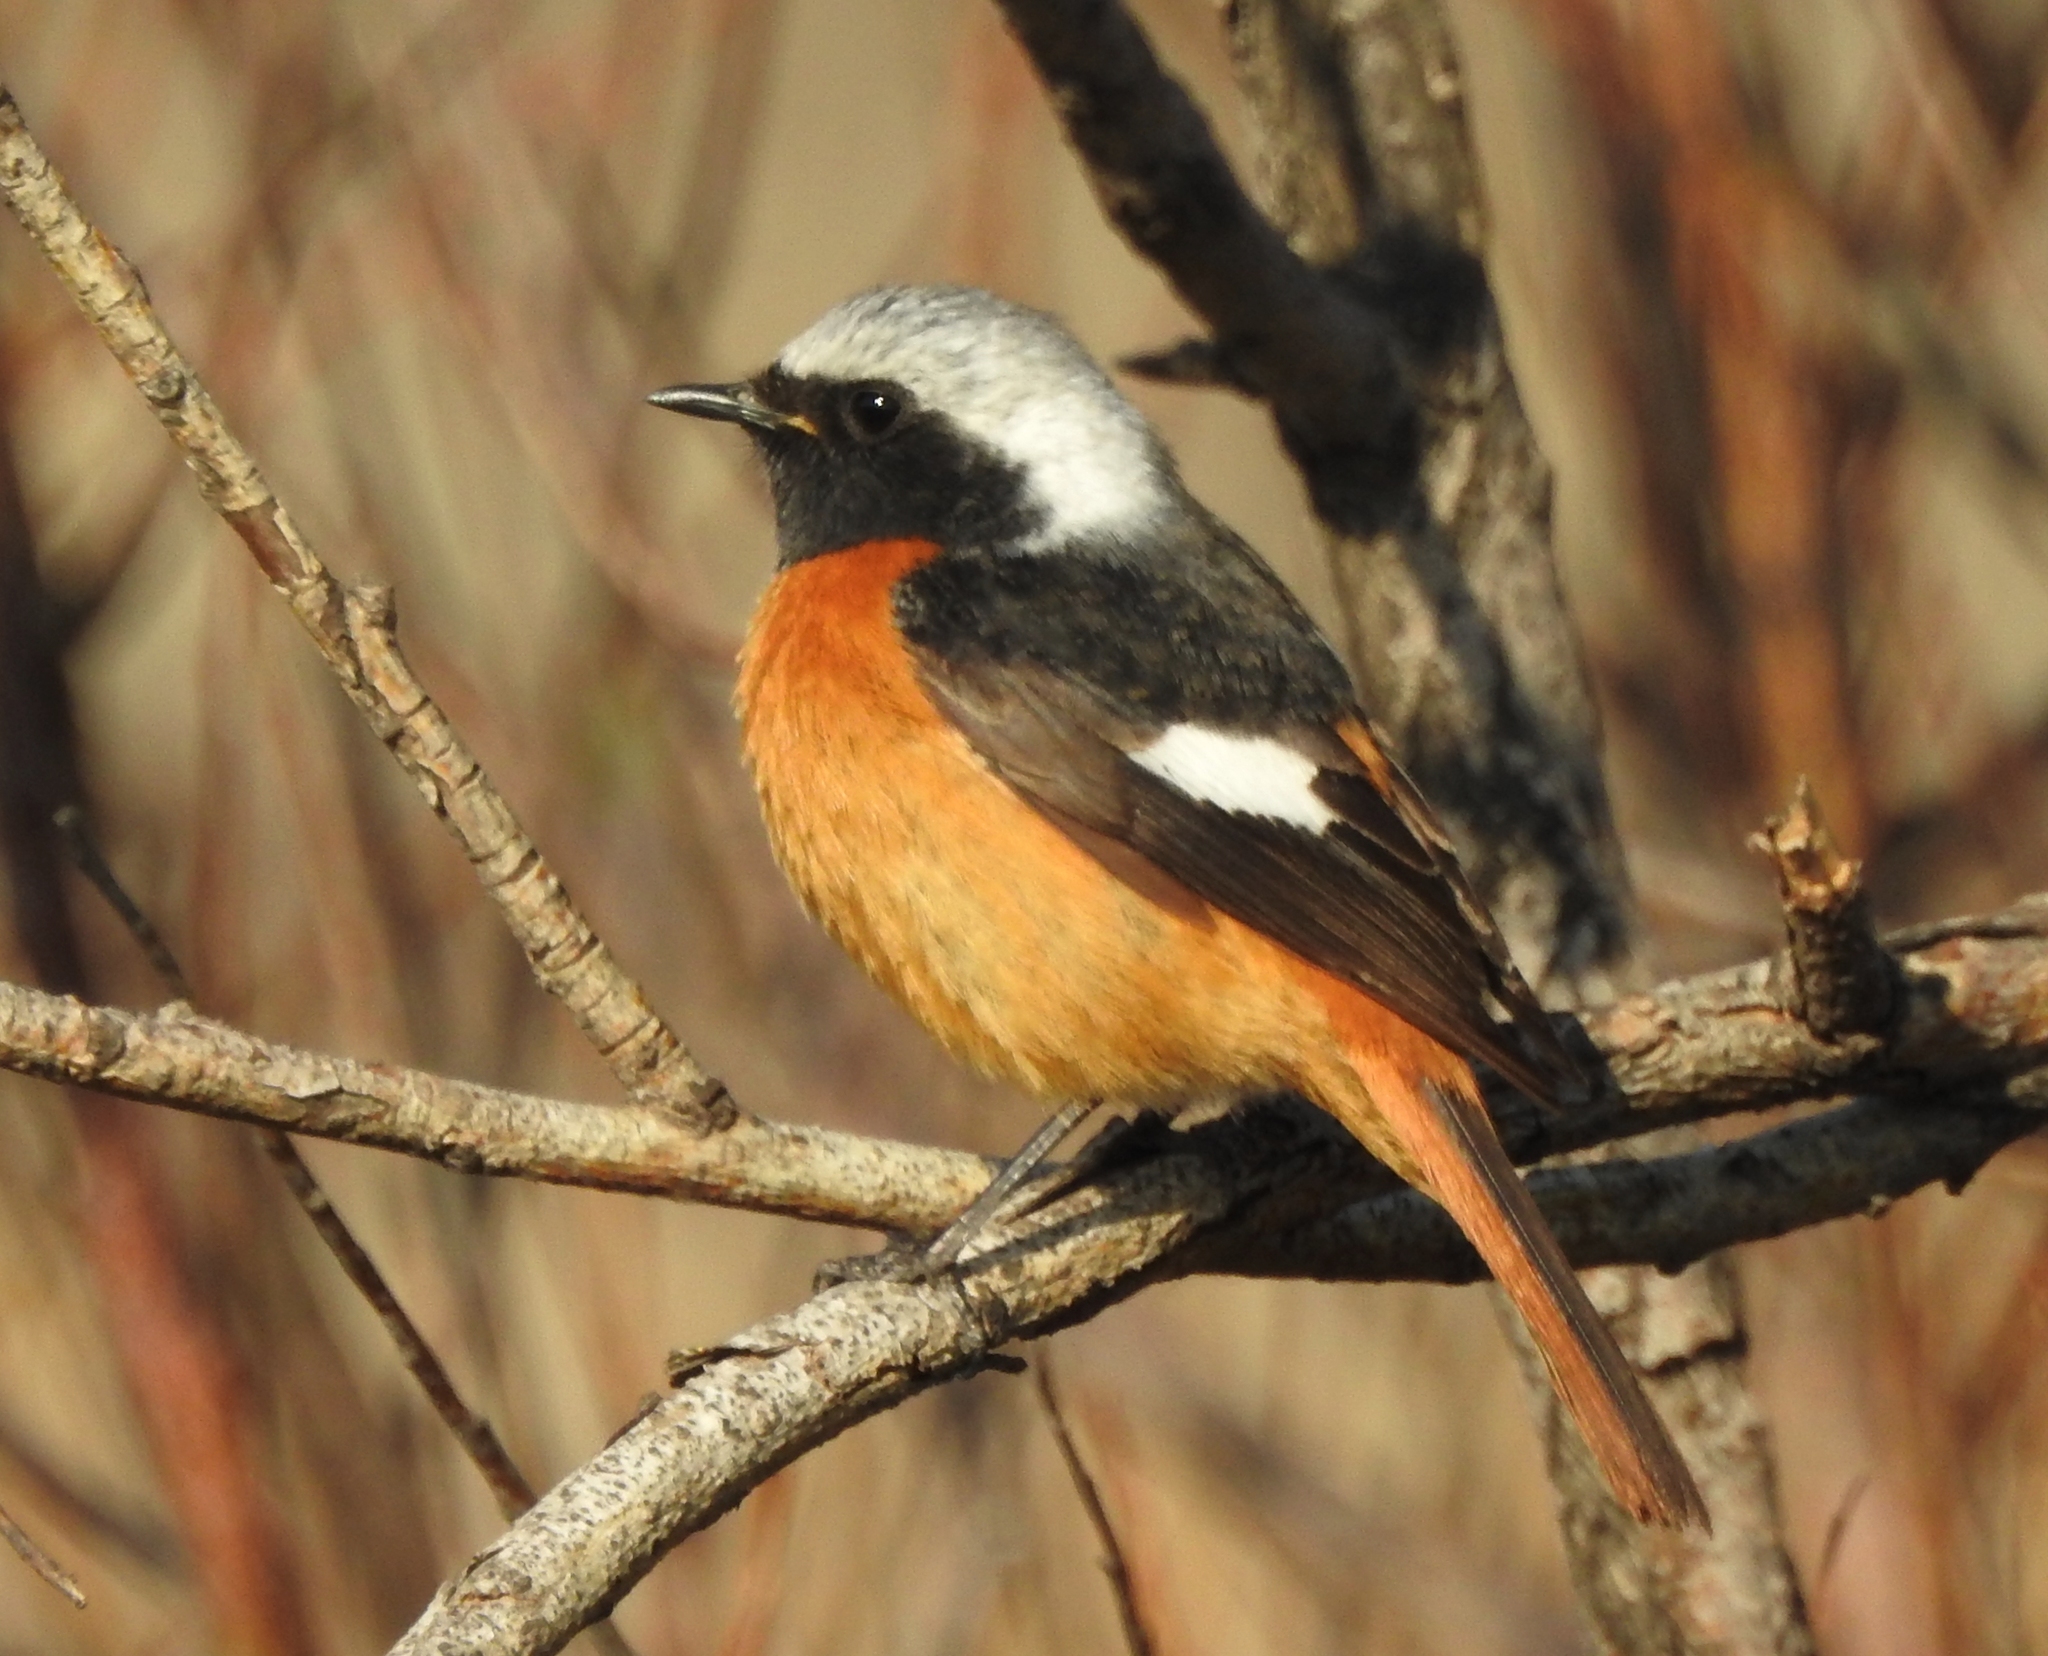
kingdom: Animalia
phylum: Chordata
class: Aves
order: Passeriformes
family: Muscicapidae
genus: Phoenicurus
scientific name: Phoenicurus auroreus
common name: Daurian redstart
